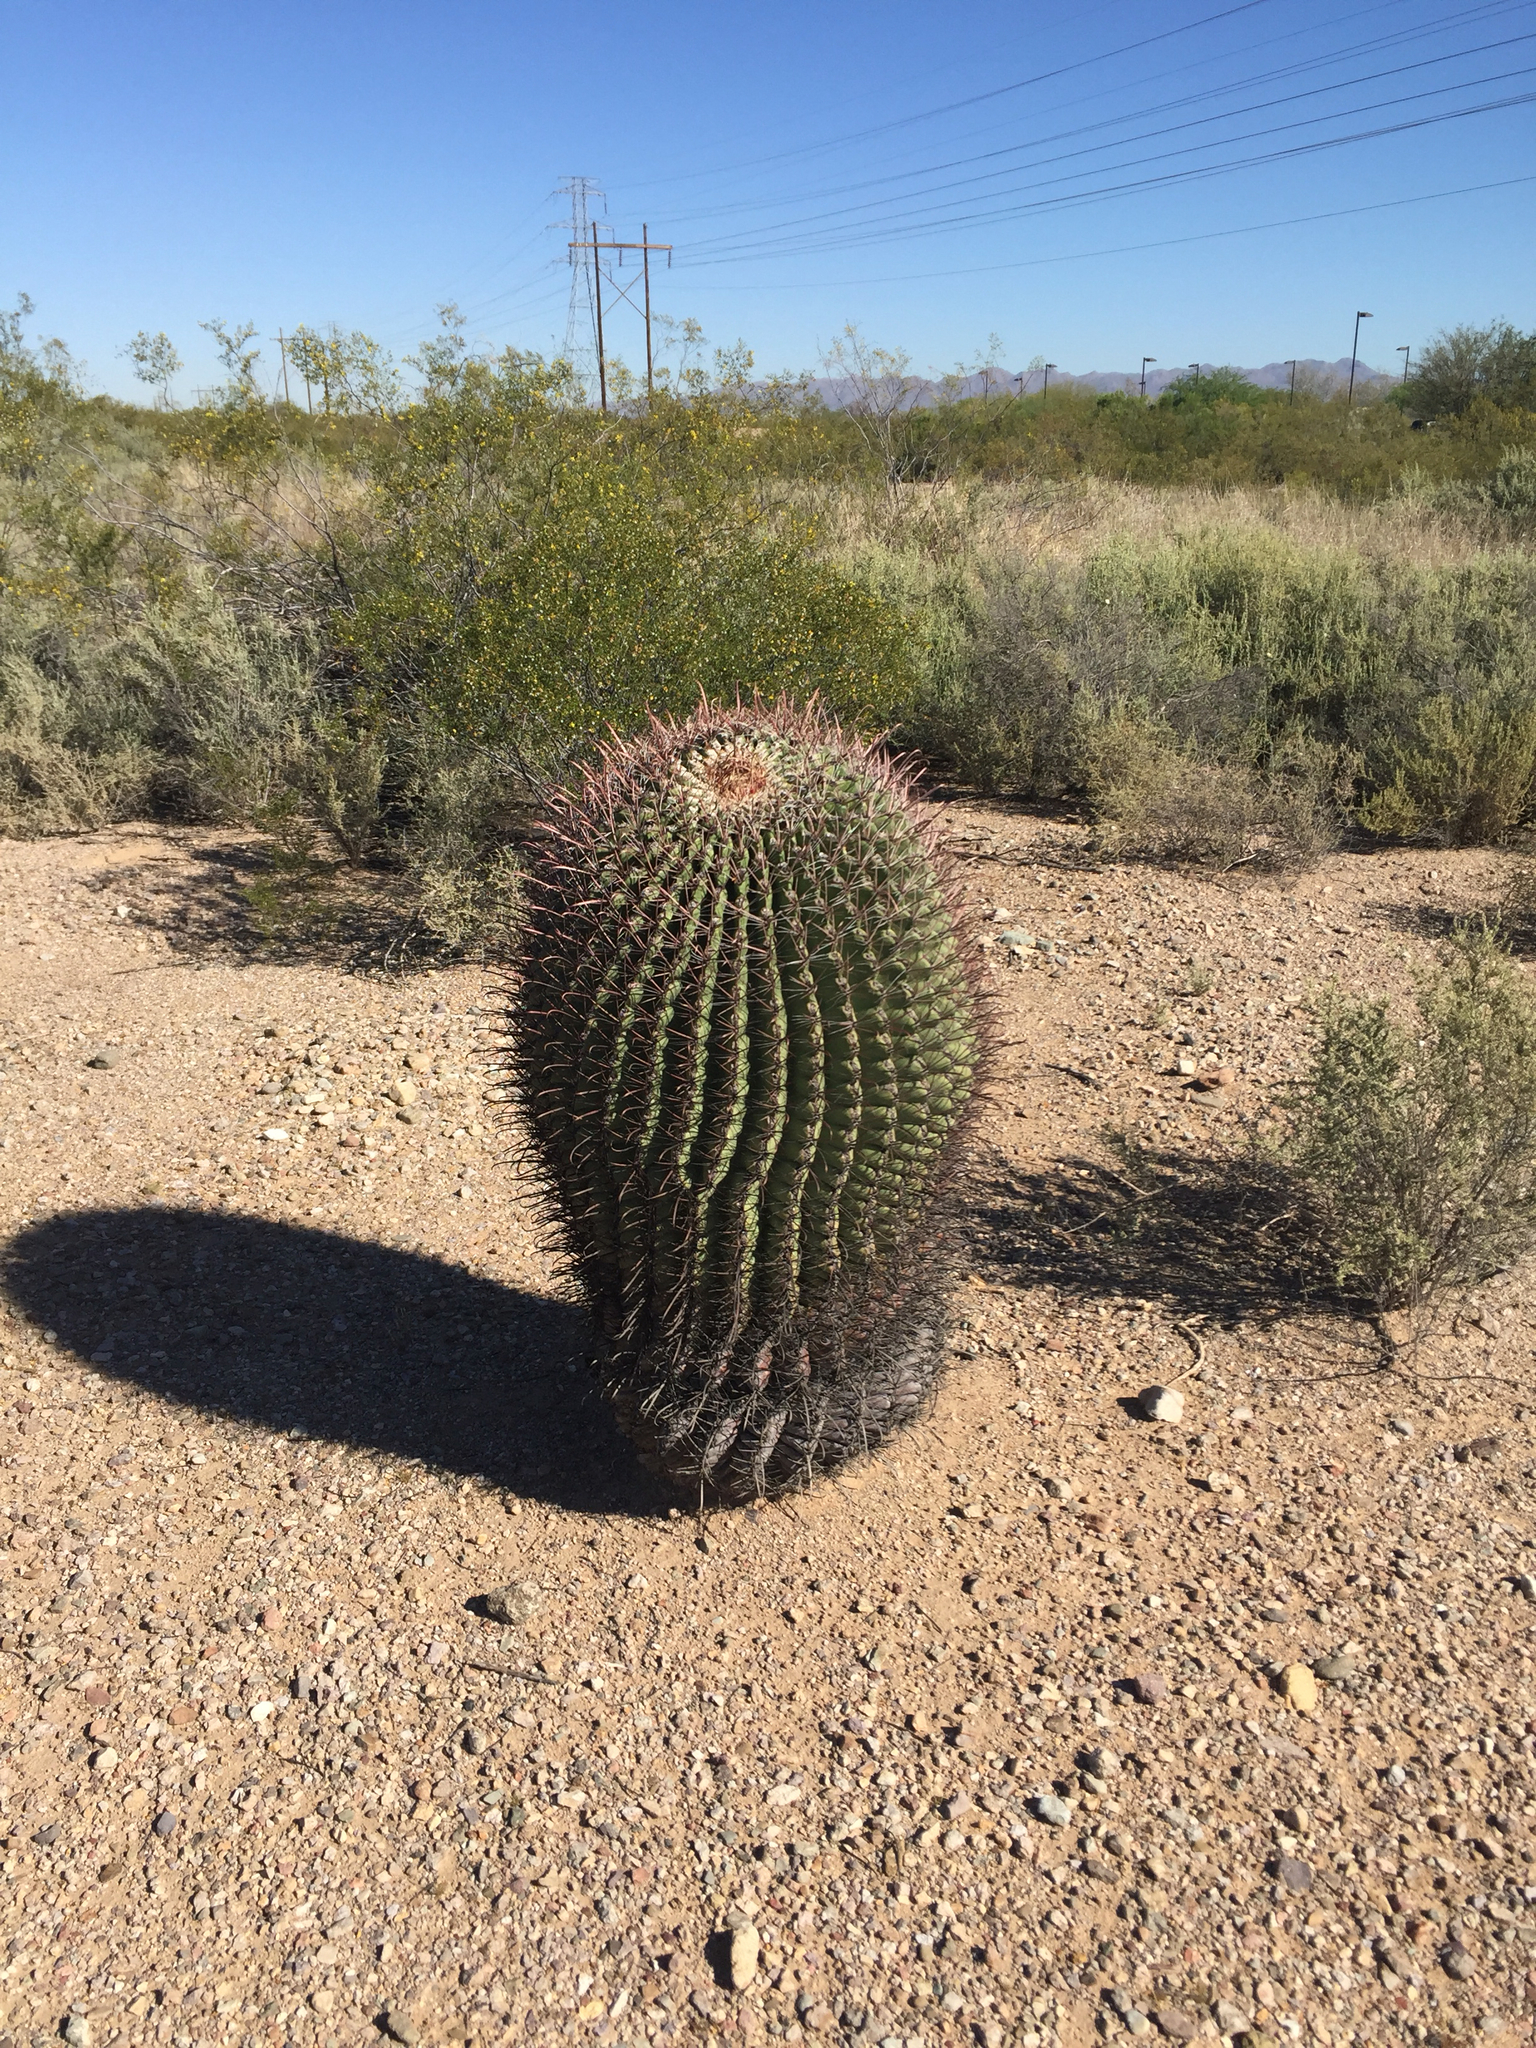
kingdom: Plantae
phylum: Tracheophyta
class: Magnoliopsida
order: Caryophyllales
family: Cactaceae
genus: Ferocactus
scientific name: Ferocactus wislizeni
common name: Candy barrel cactus
